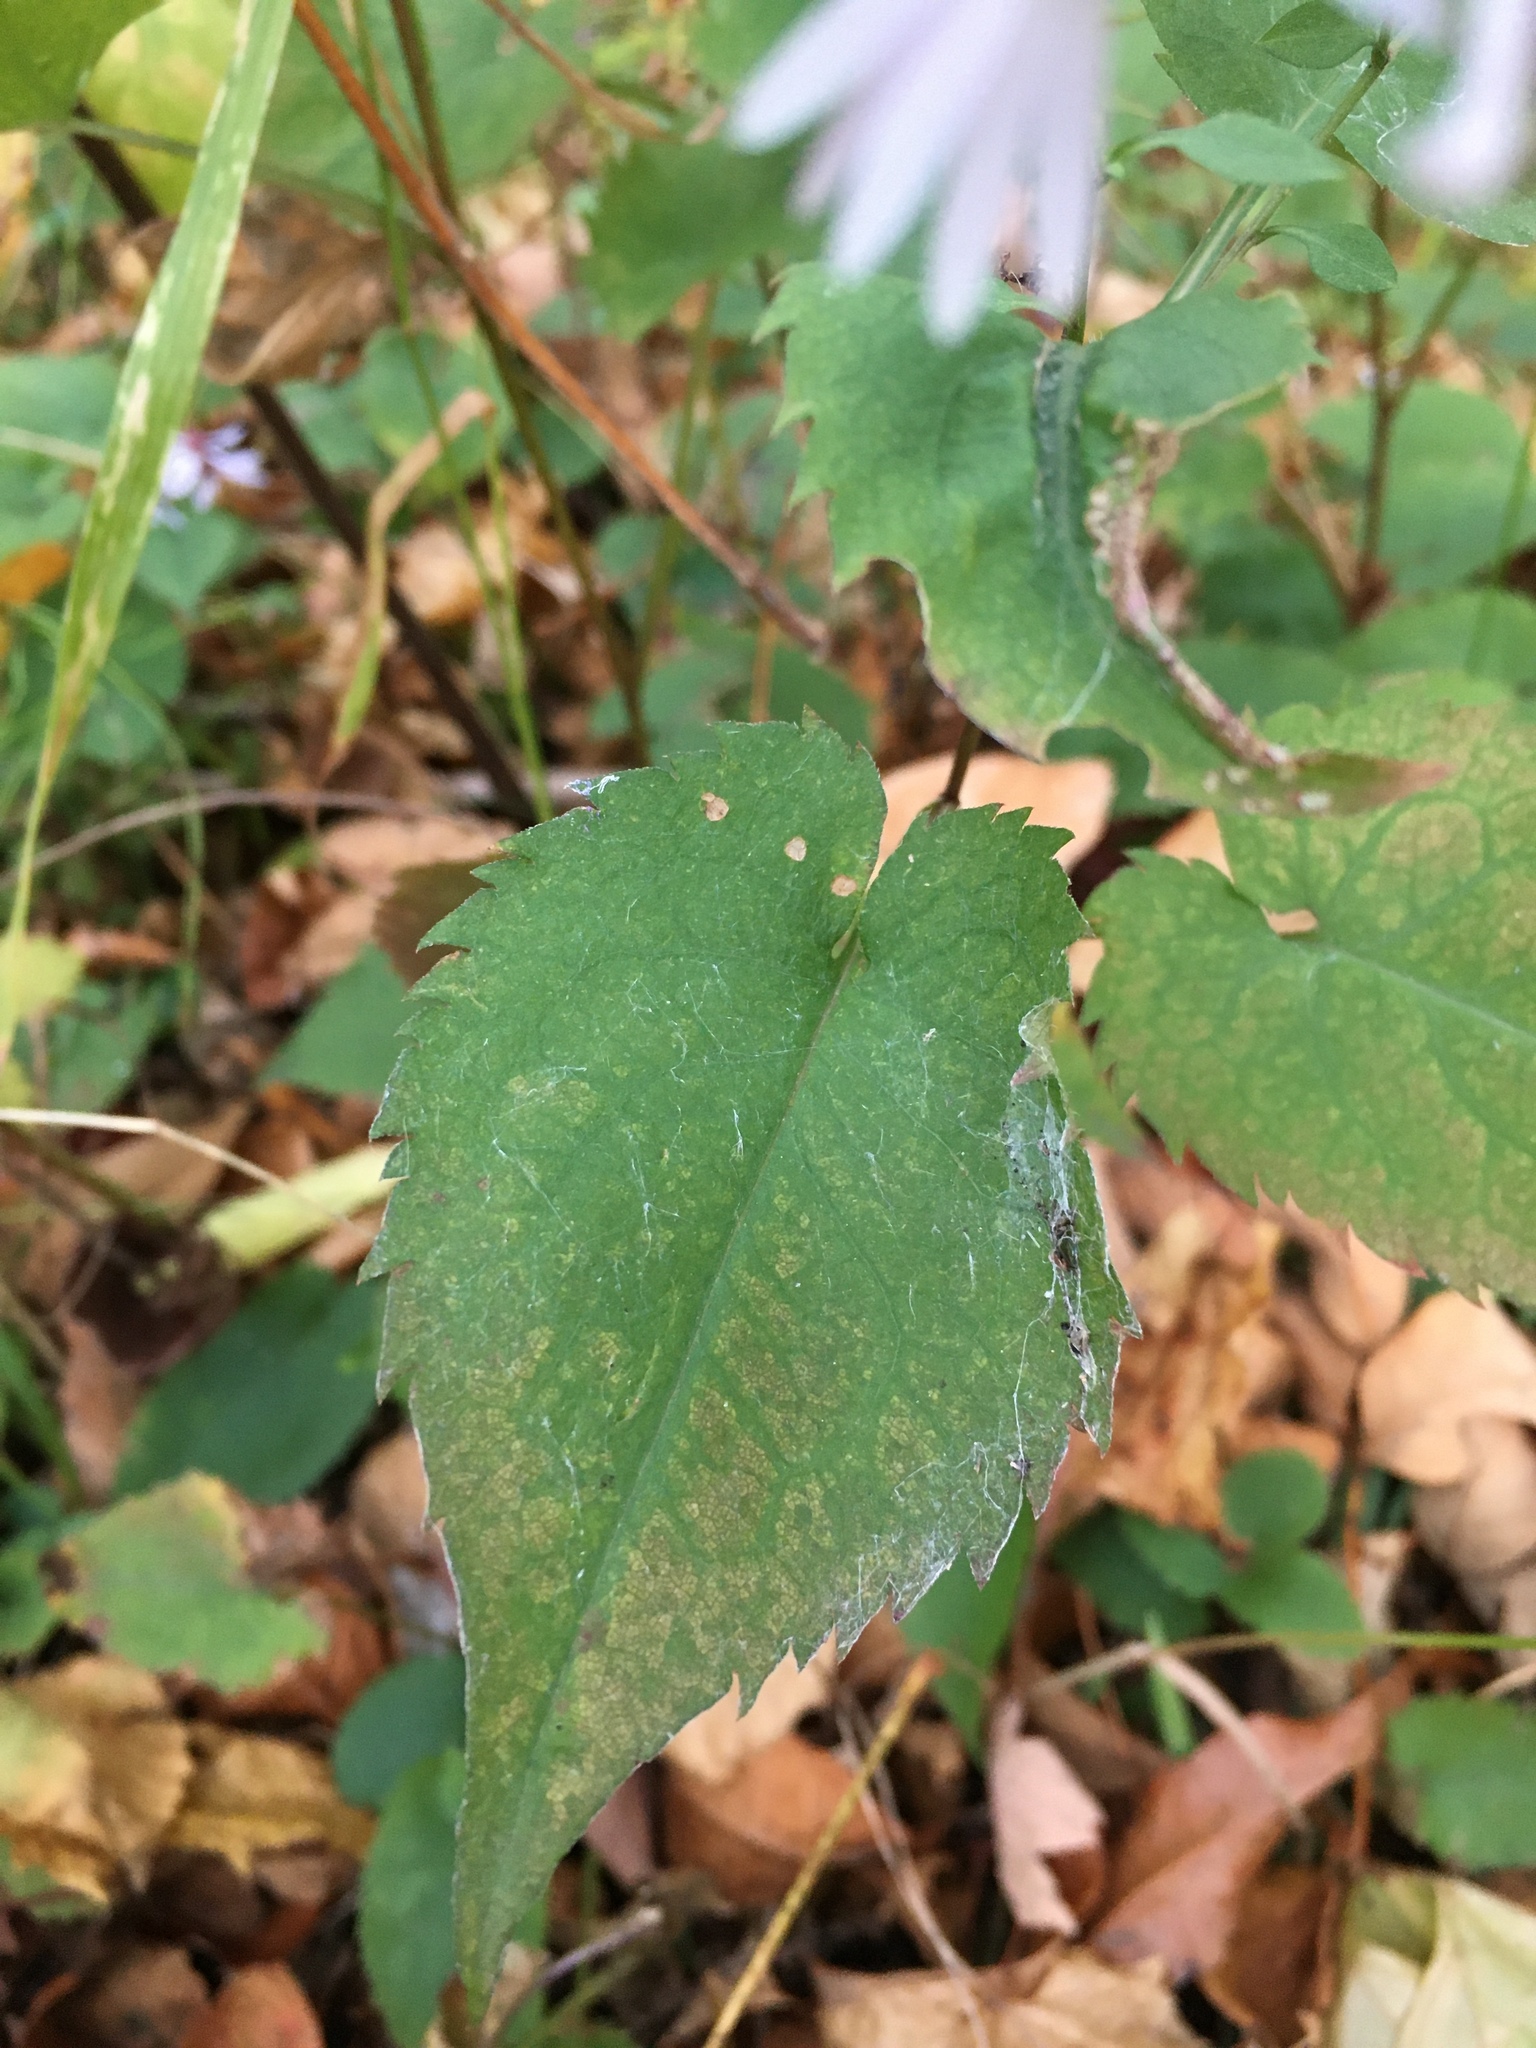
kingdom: Plantae
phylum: Tracheophyta
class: Magnoliopsida
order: Asterales
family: Asteraceae
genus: Symphyotrichum
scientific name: Symphyotrichum cordifolium
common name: Beeweed
